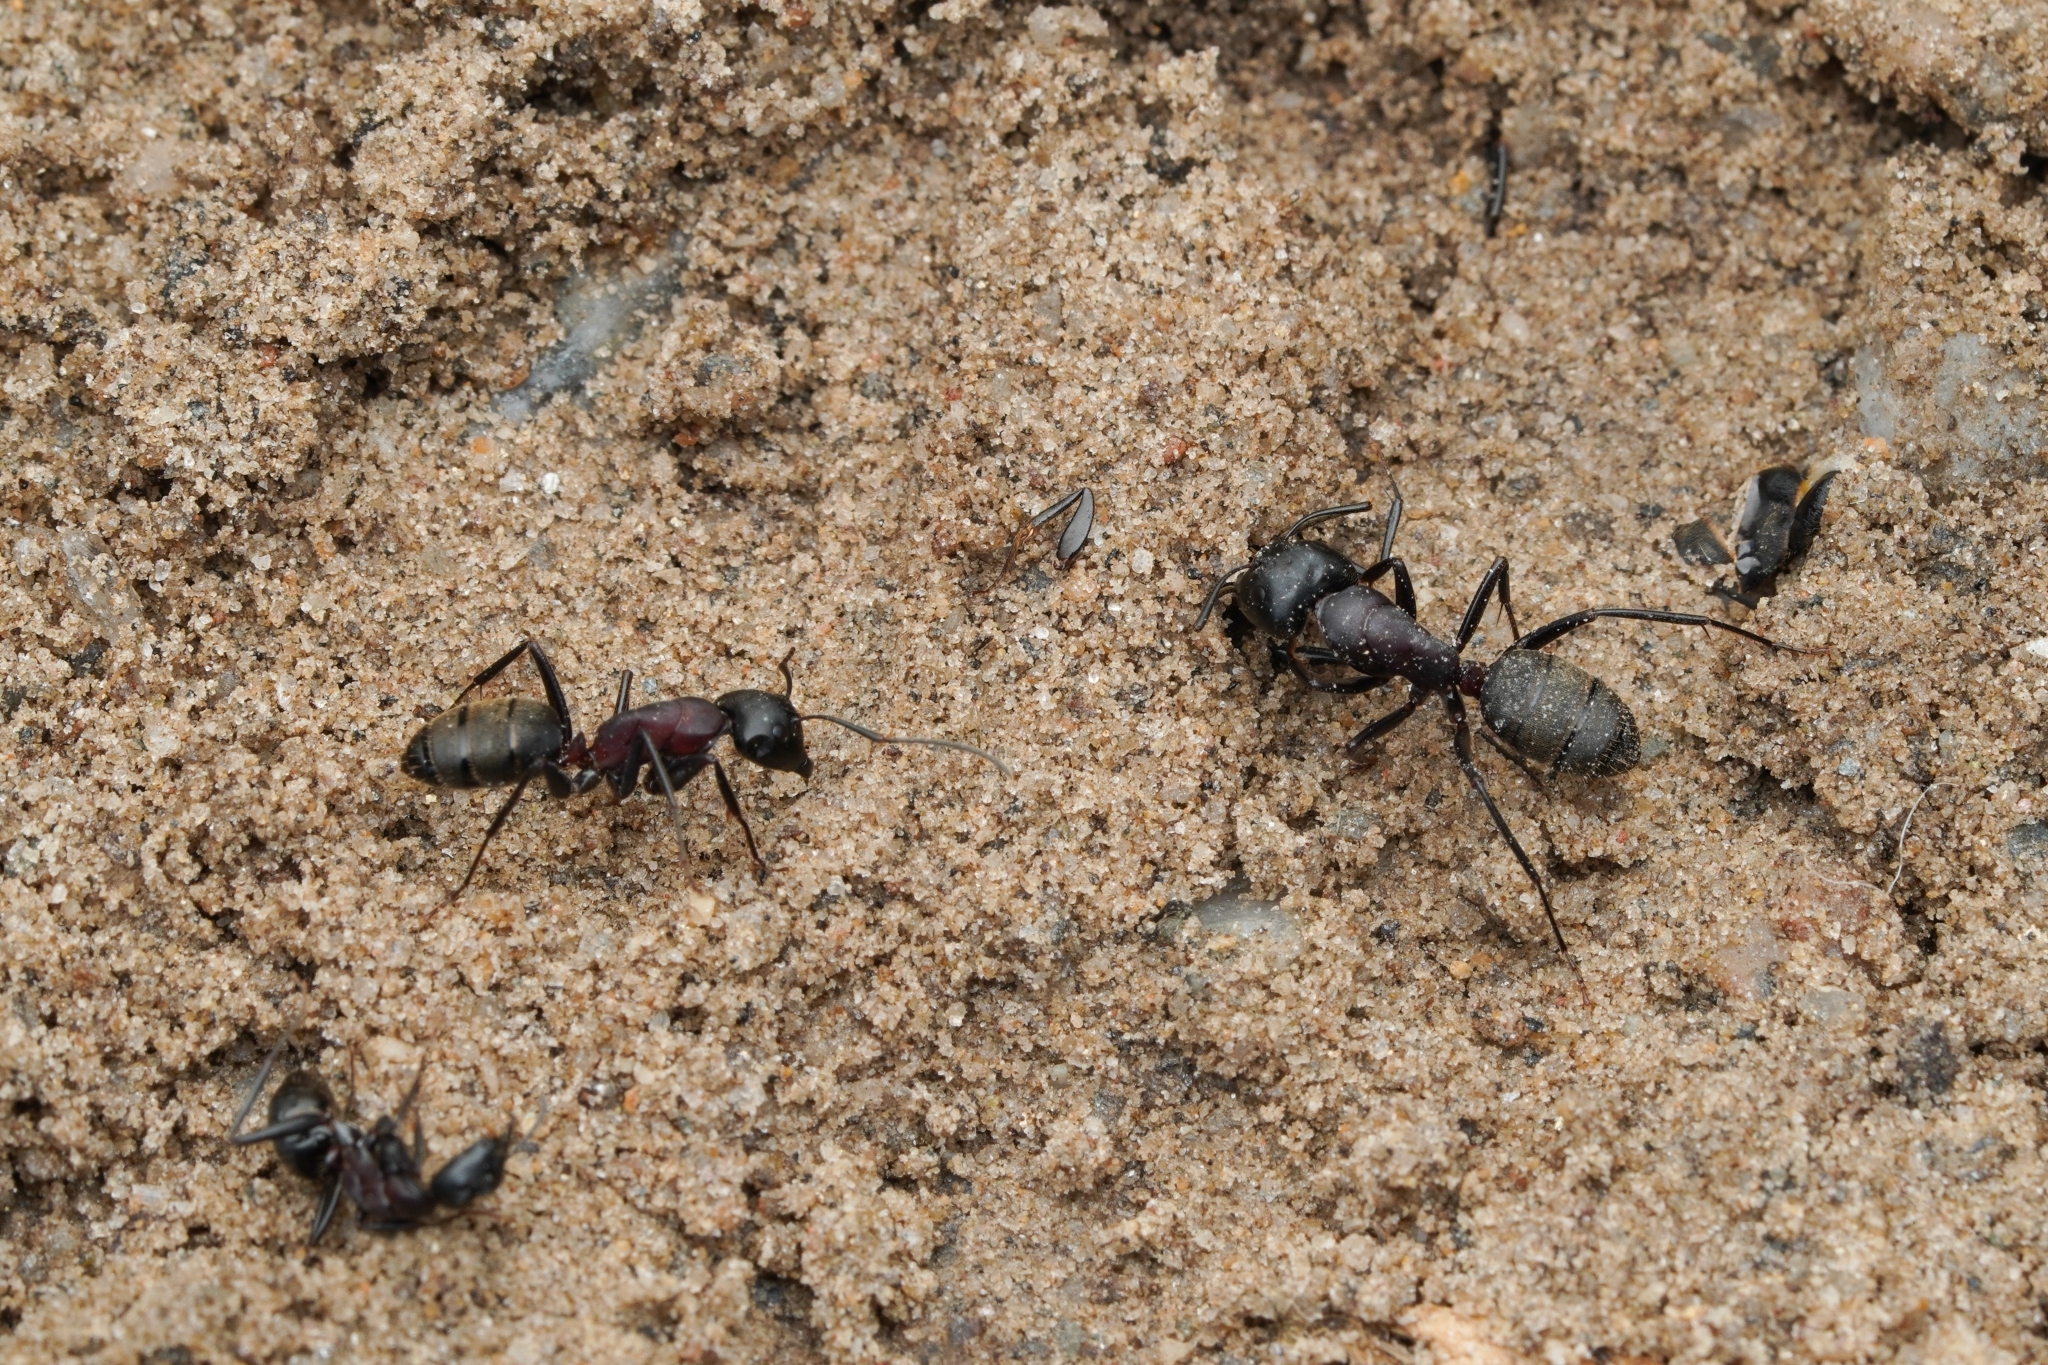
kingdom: Animalia
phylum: Arthropoda
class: Insecta
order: Hymenoptera
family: Formicidae
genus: Camponotus
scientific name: Camponotus atrox
